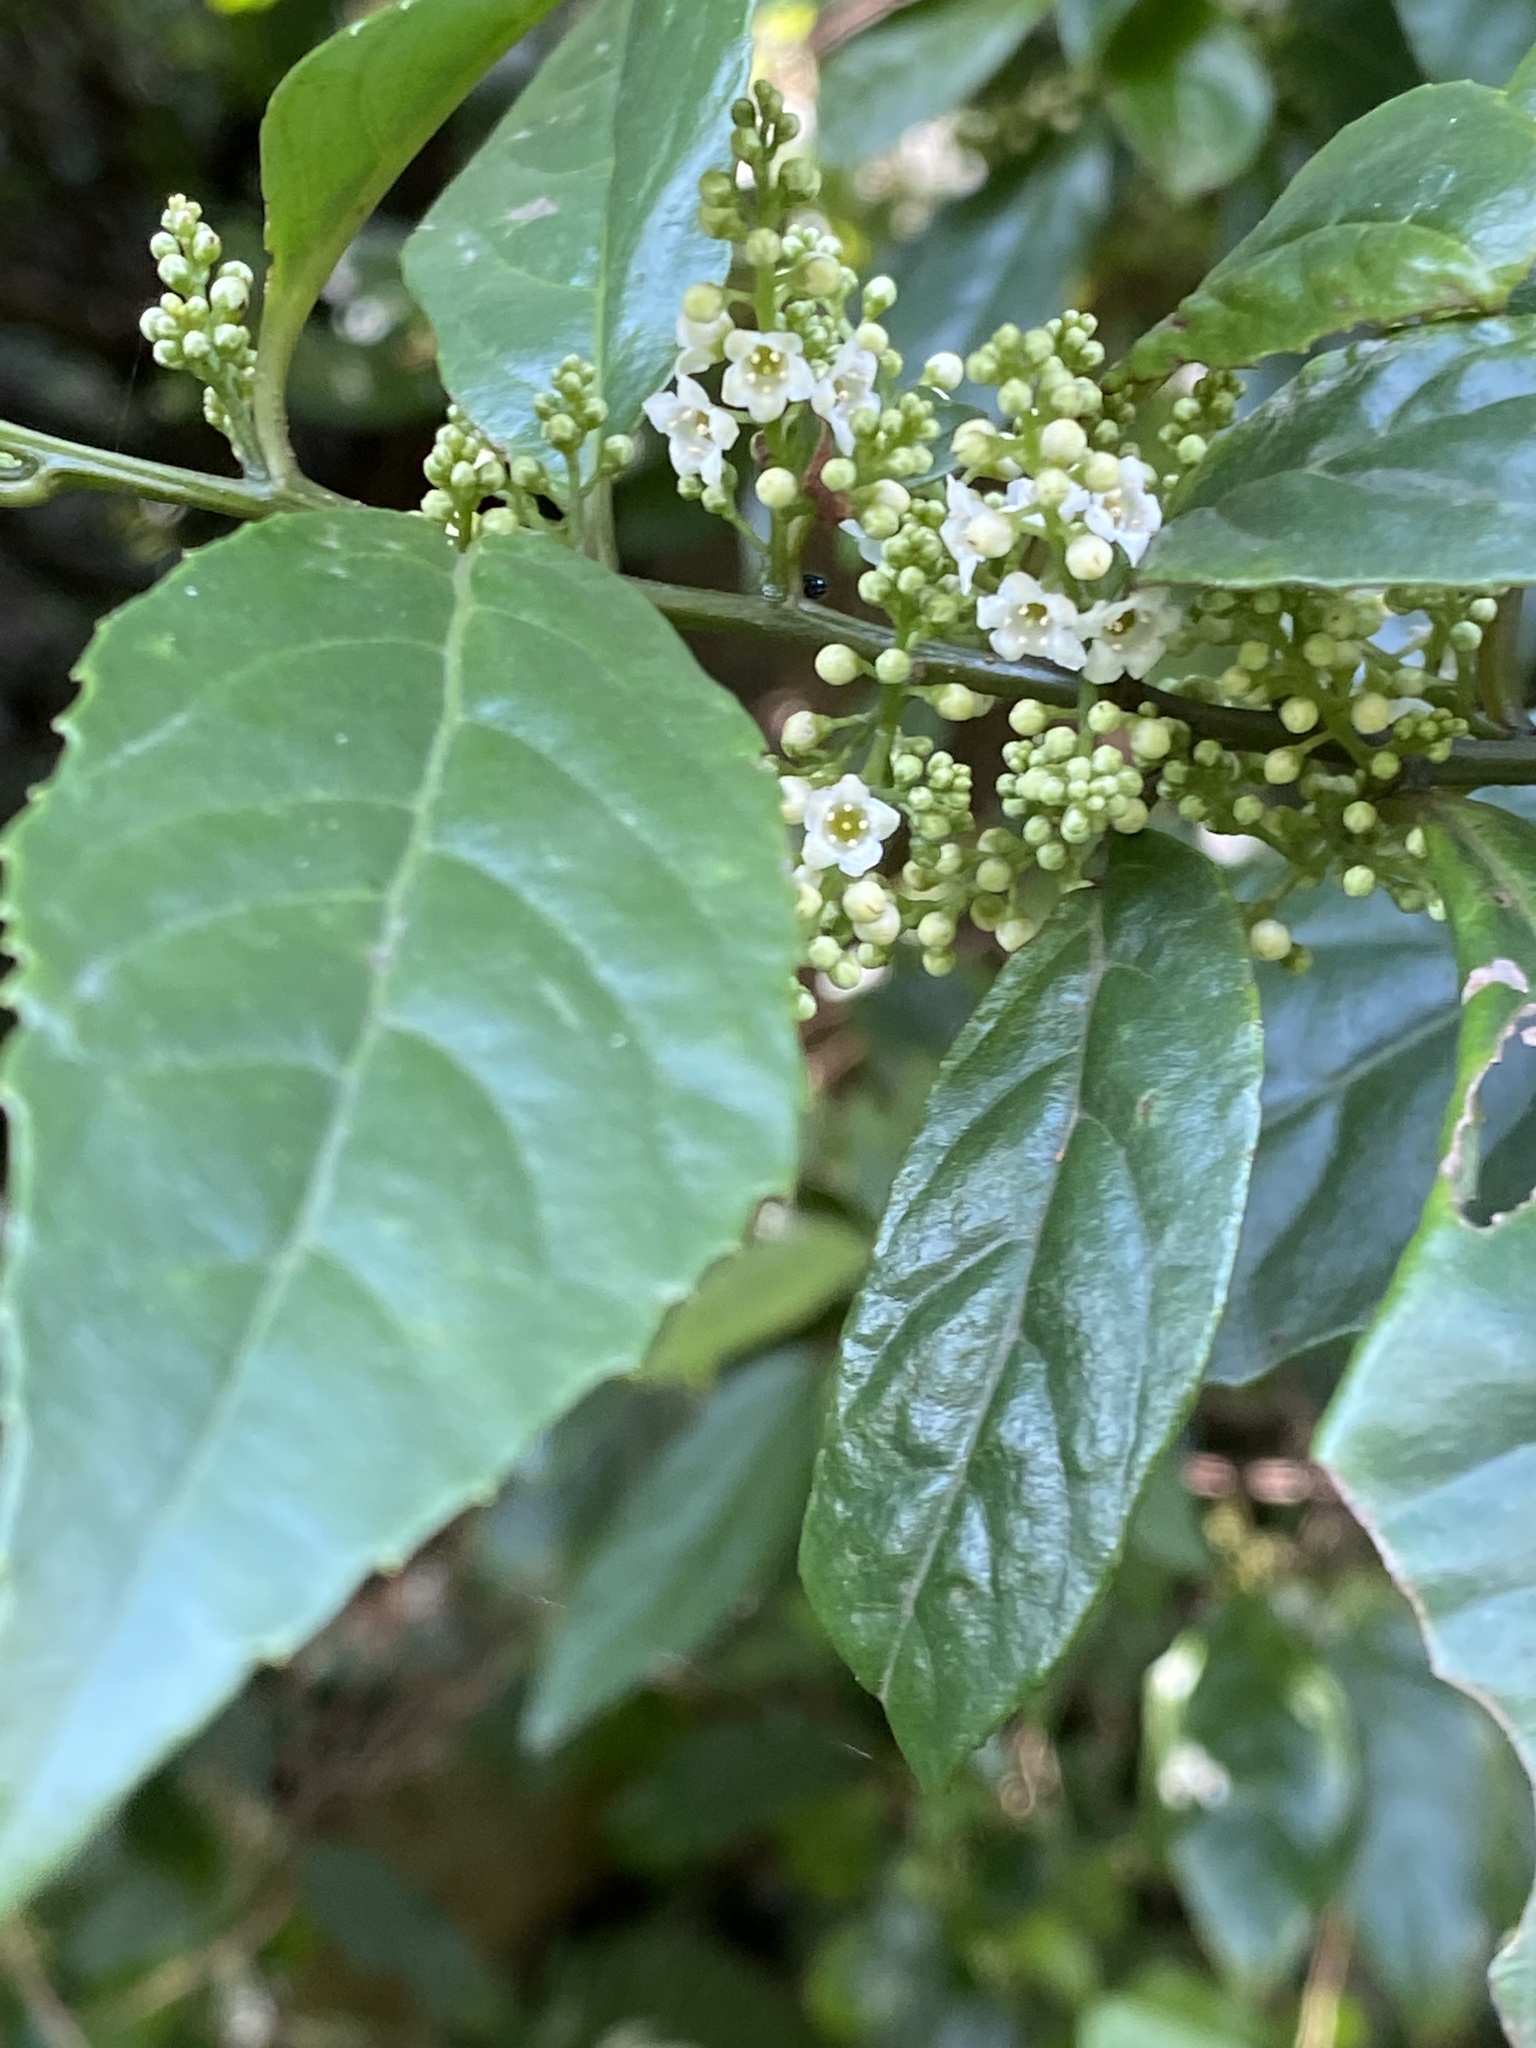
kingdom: Plantae
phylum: Tracheophyta
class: Magnoliopsida
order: Ericales
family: Primulaceae
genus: Maesa
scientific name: Maesa perlaria
